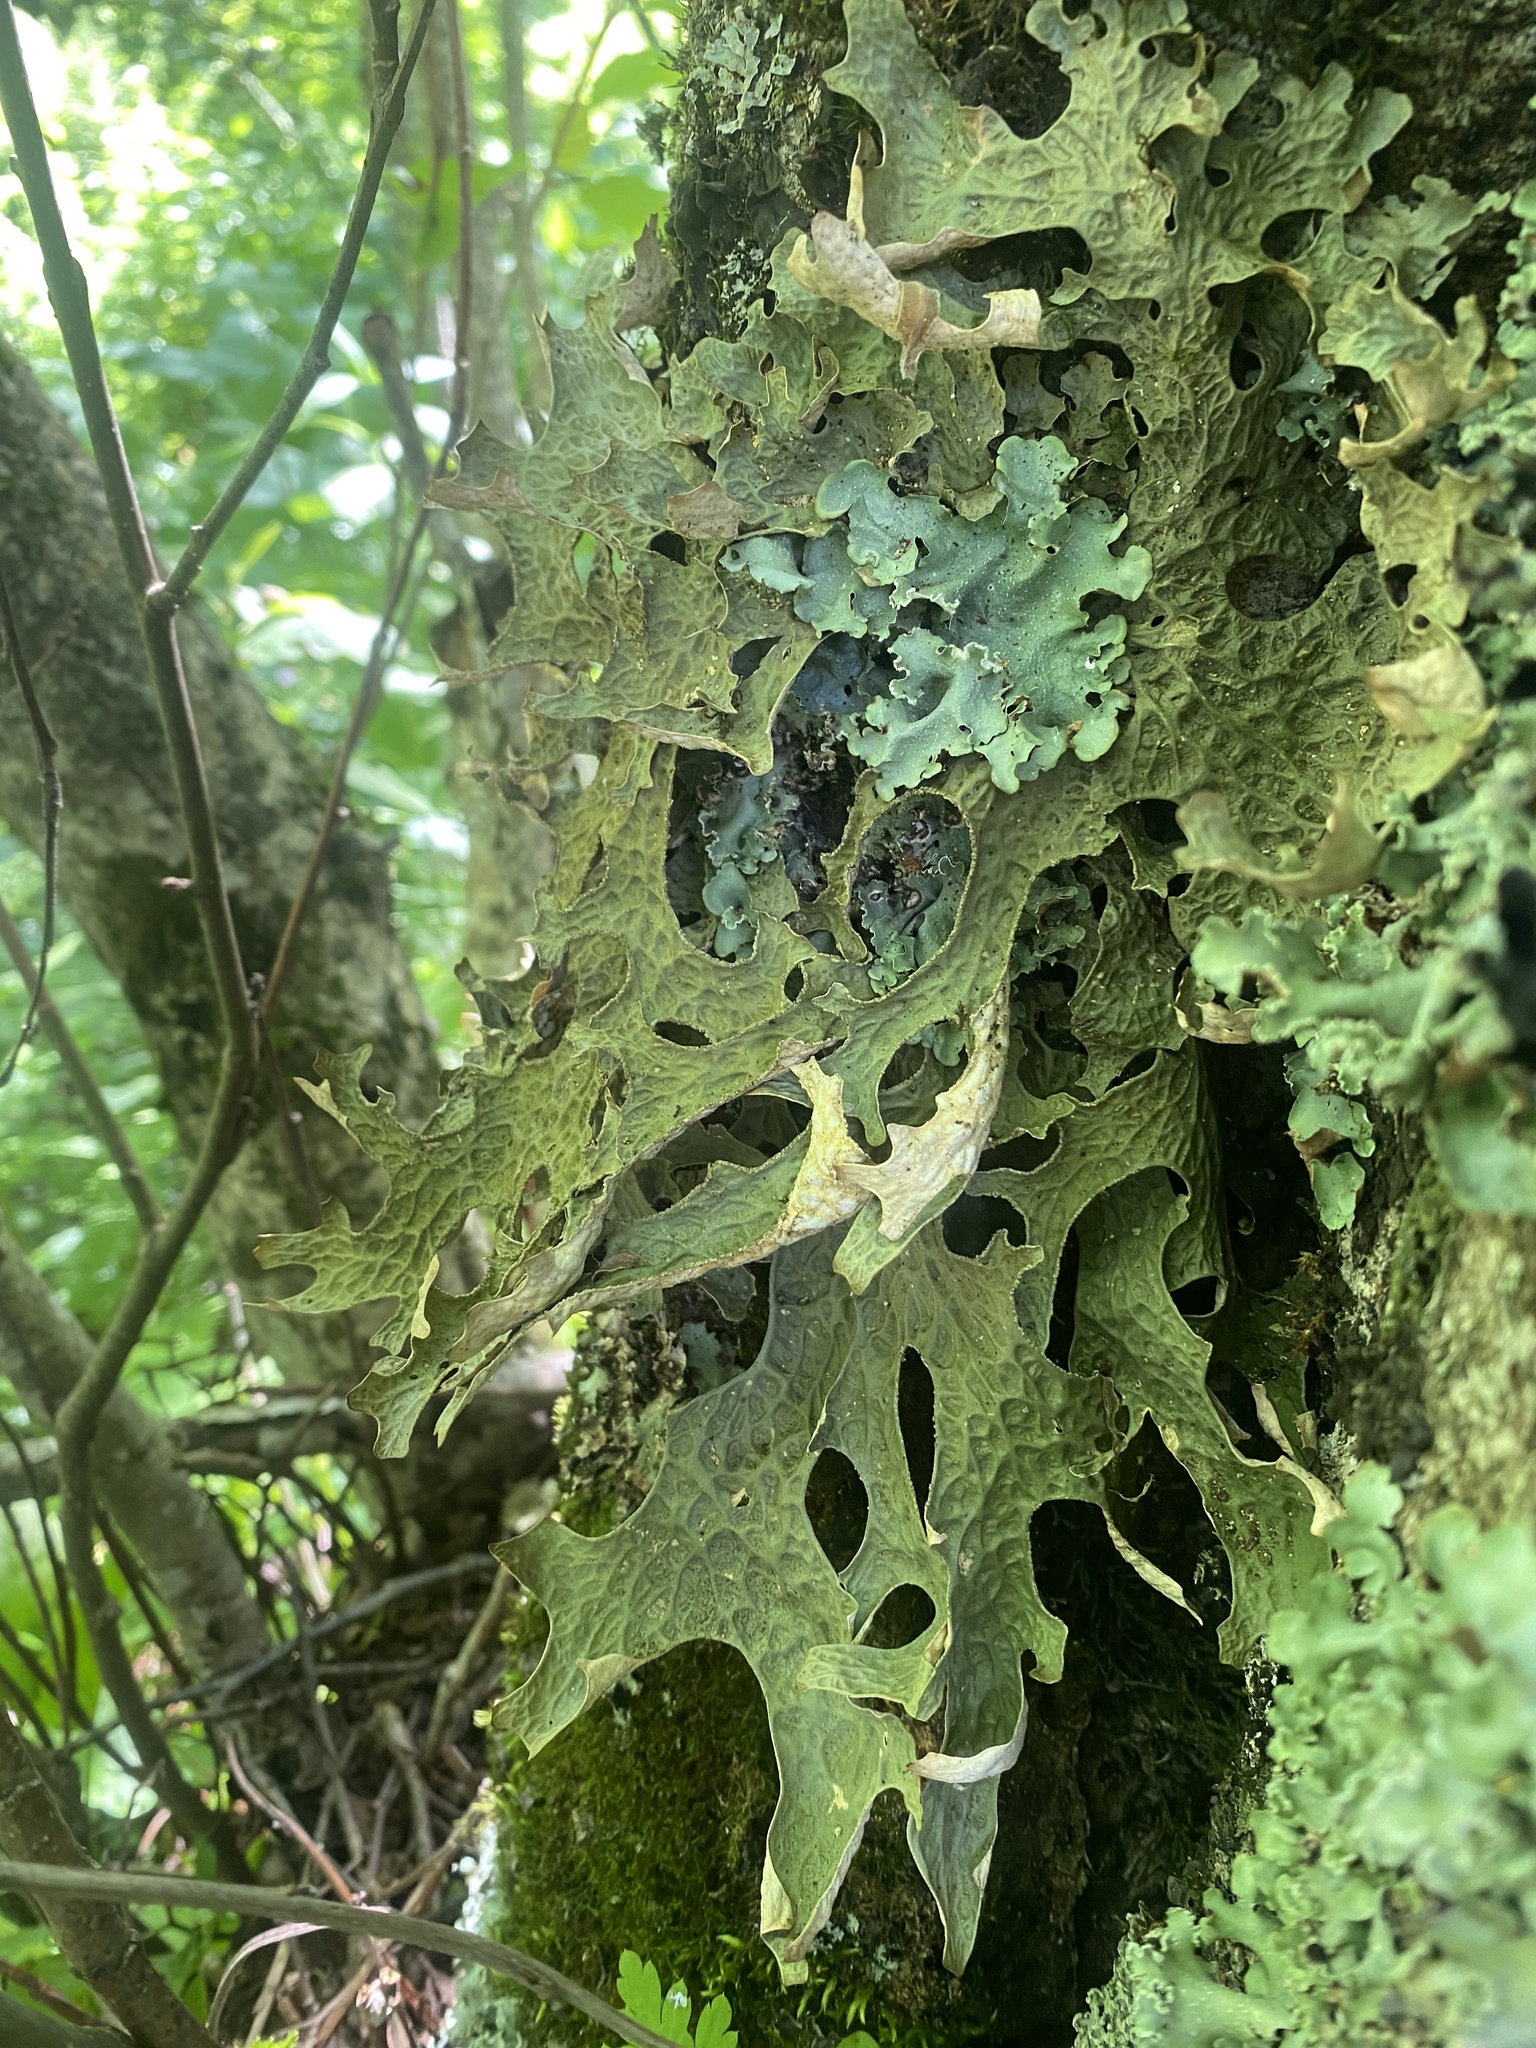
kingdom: Fungi
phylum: Ascomycota
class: Lecanoromycetes
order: Peltigerales
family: Lobariaceae
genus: Lobaria
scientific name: Lobaria pulmonaria
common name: Lungwort
